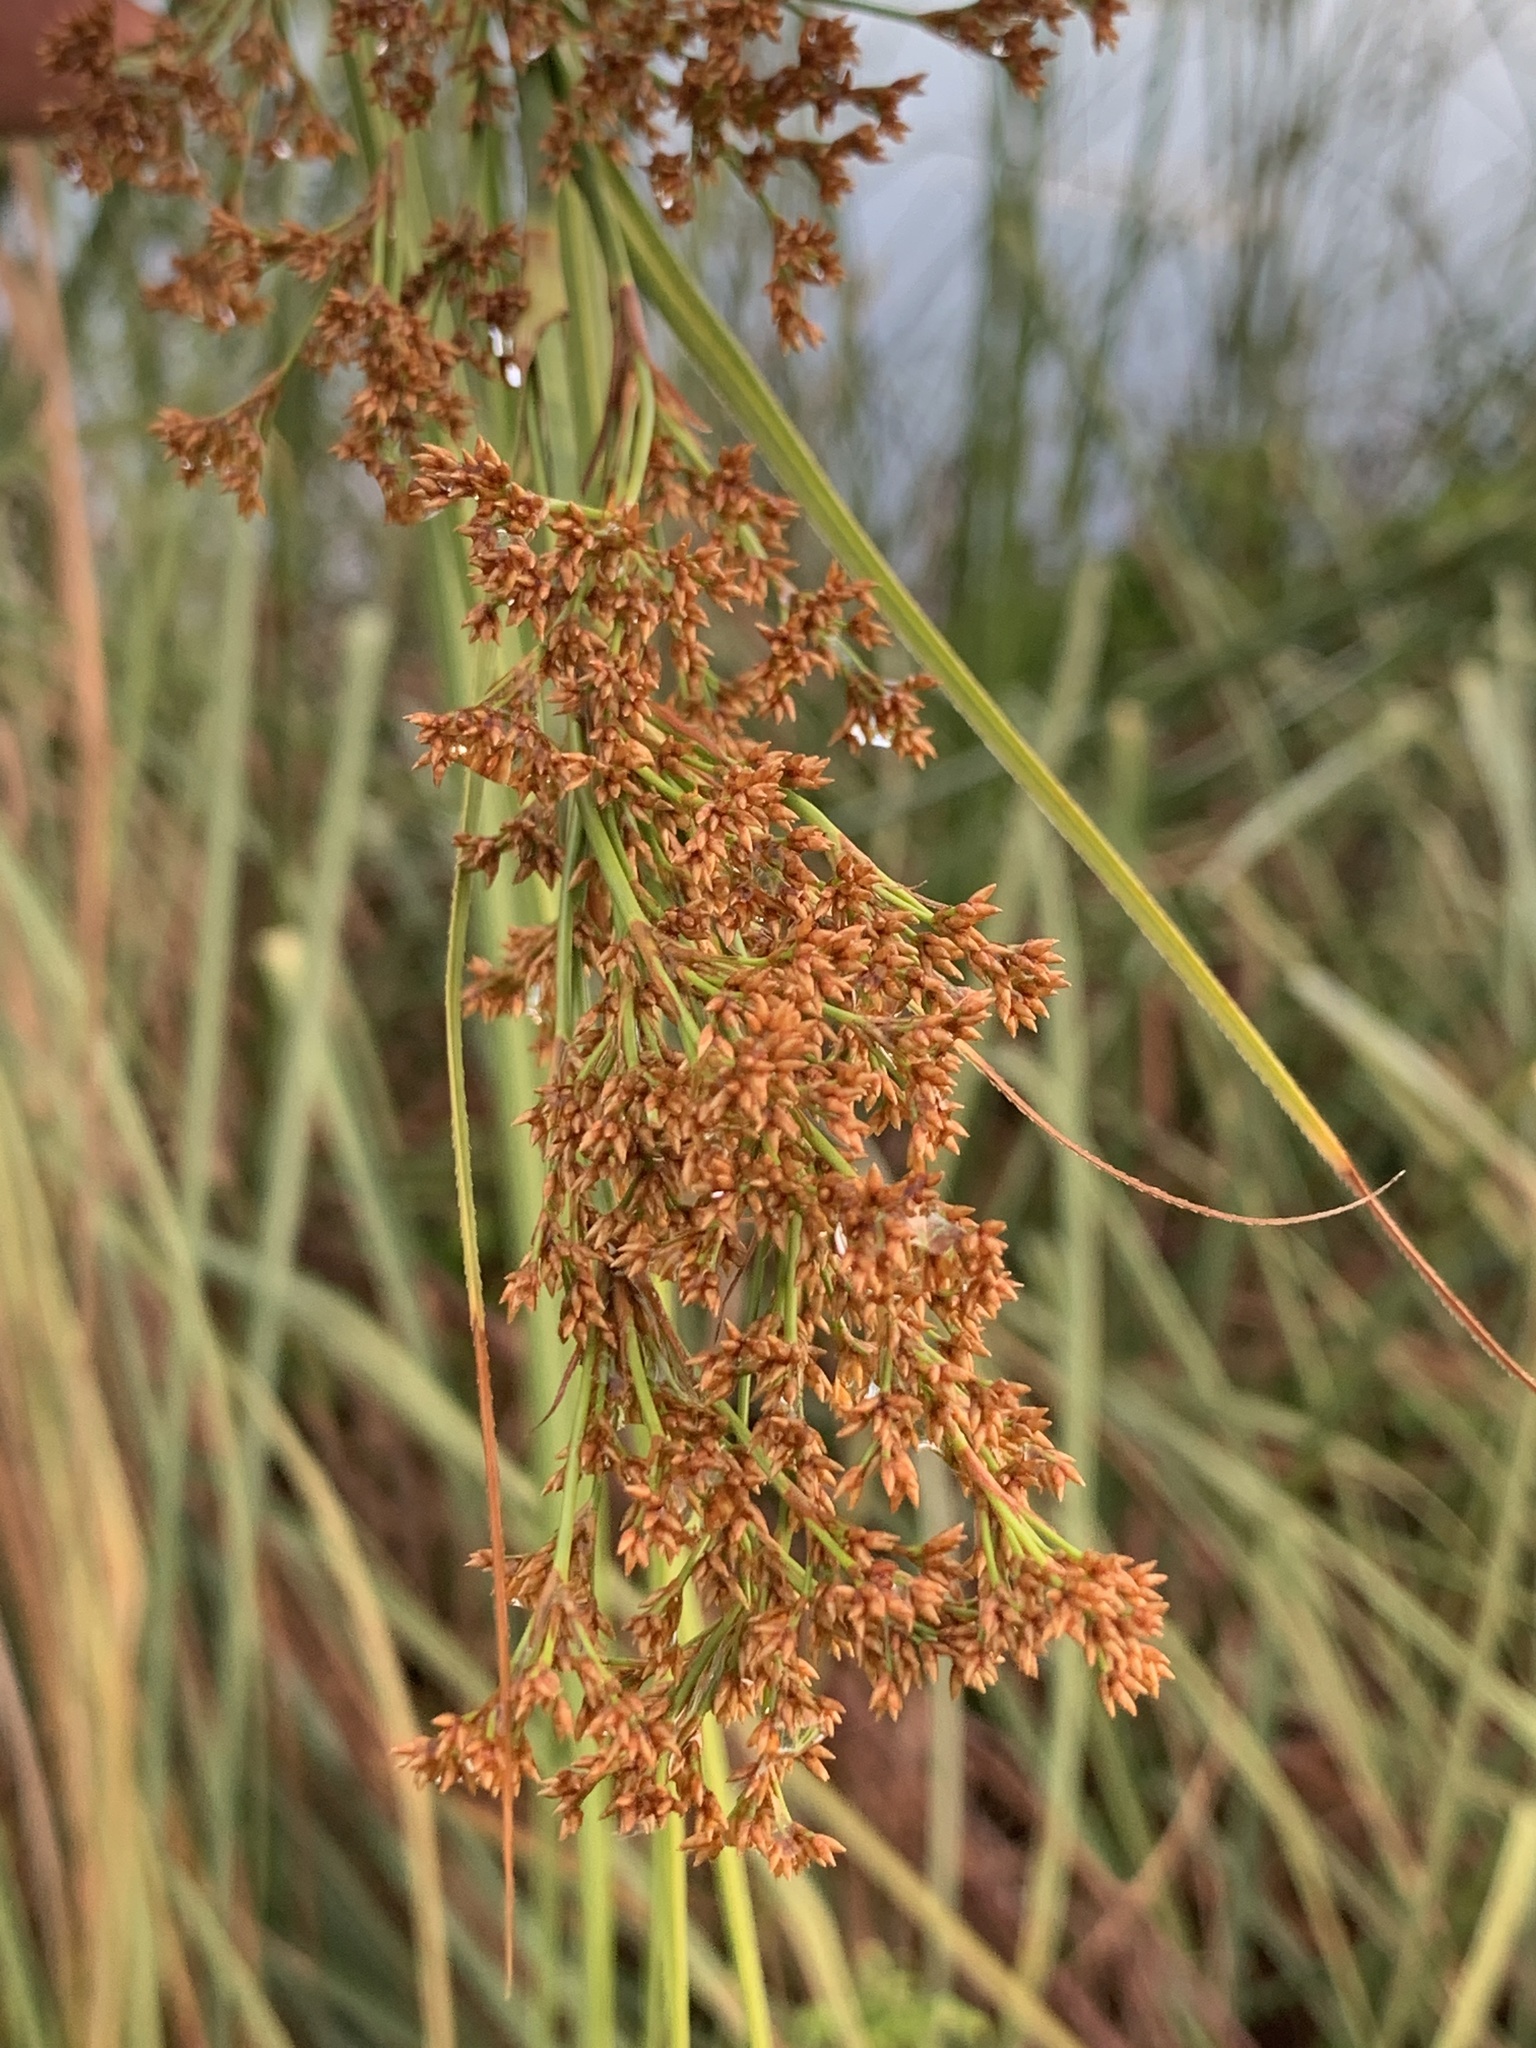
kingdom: Plantae
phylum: Tracheophyta
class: Liliopsida
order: Poales
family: Cyperaceae
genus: Cladium
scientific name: Cladium mariscus
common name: Great fen-sedge
